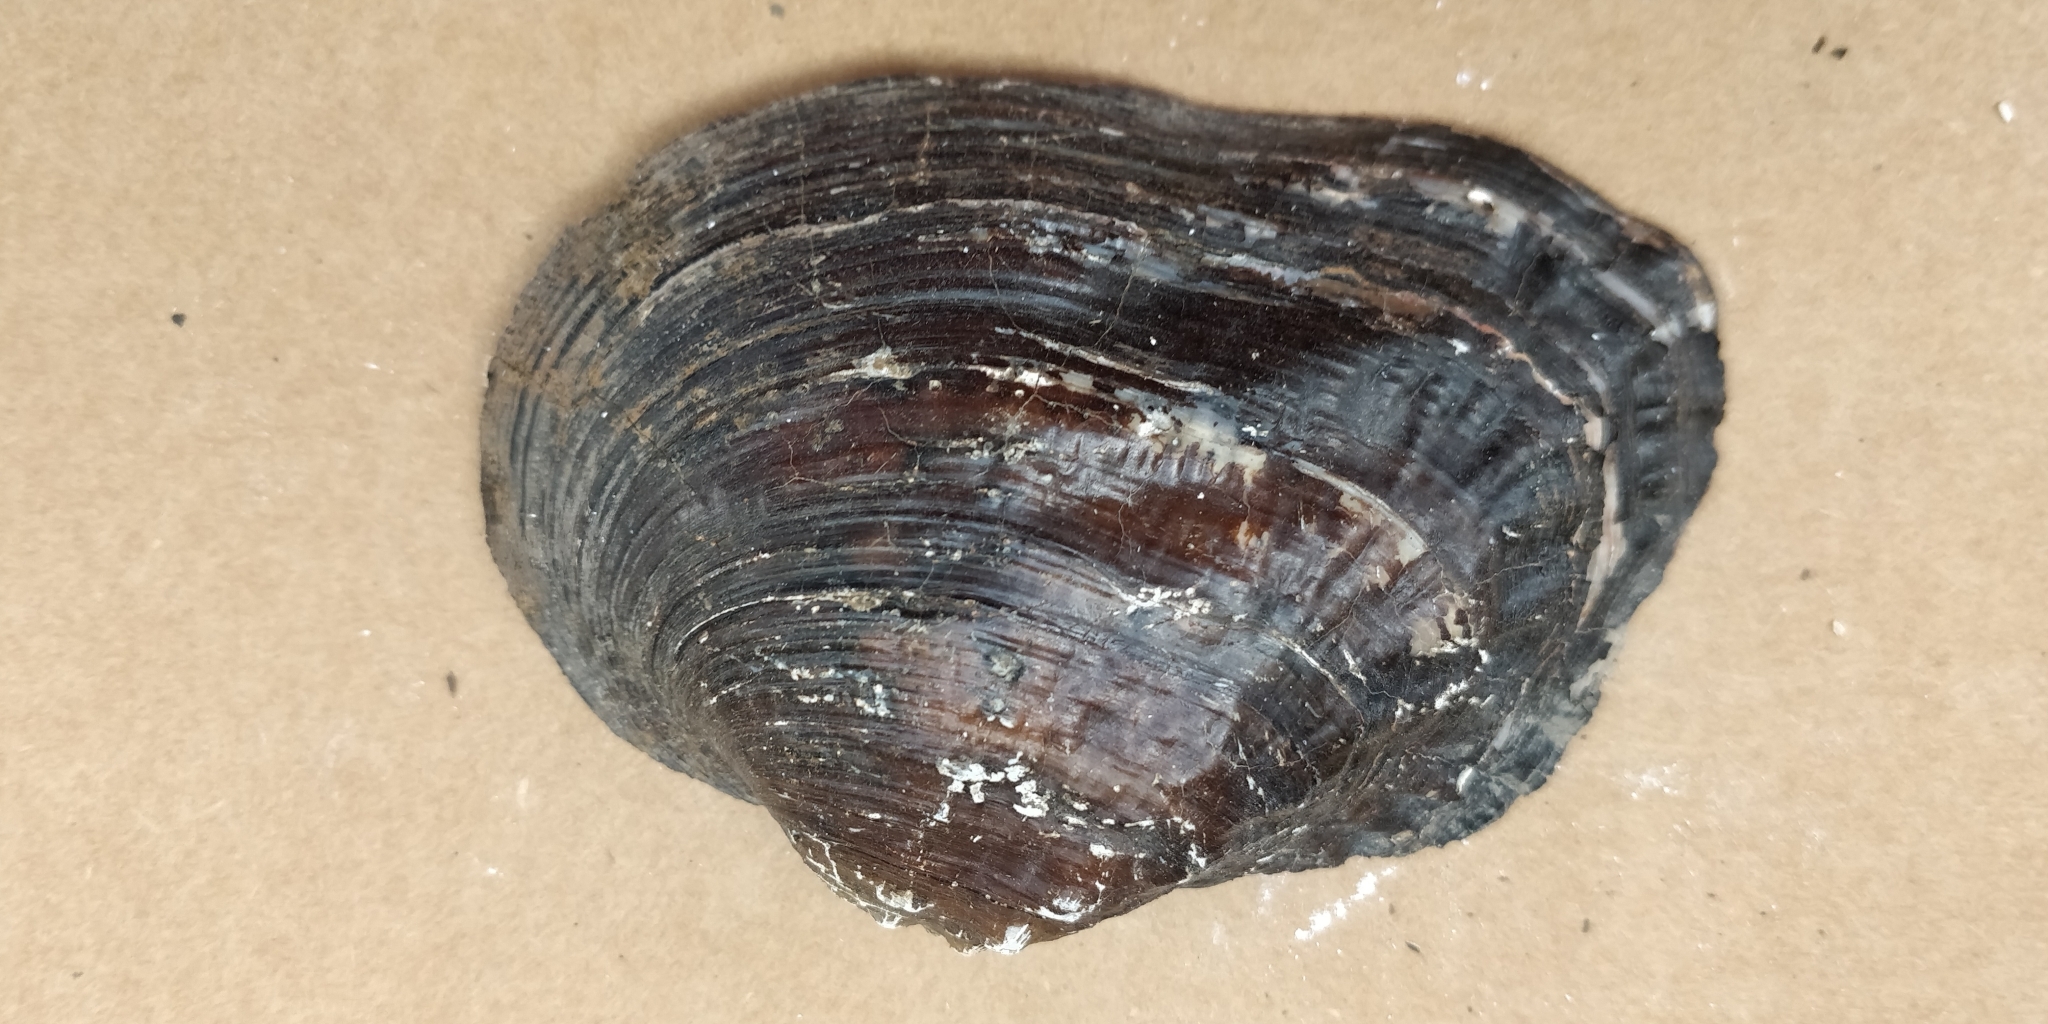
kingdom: Animalia
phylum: Mollusca
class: Bivalvia
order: Unionida
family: Unionidae
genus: Arcidens
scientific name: Arcidens confragosus
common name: Rock pocketbook
